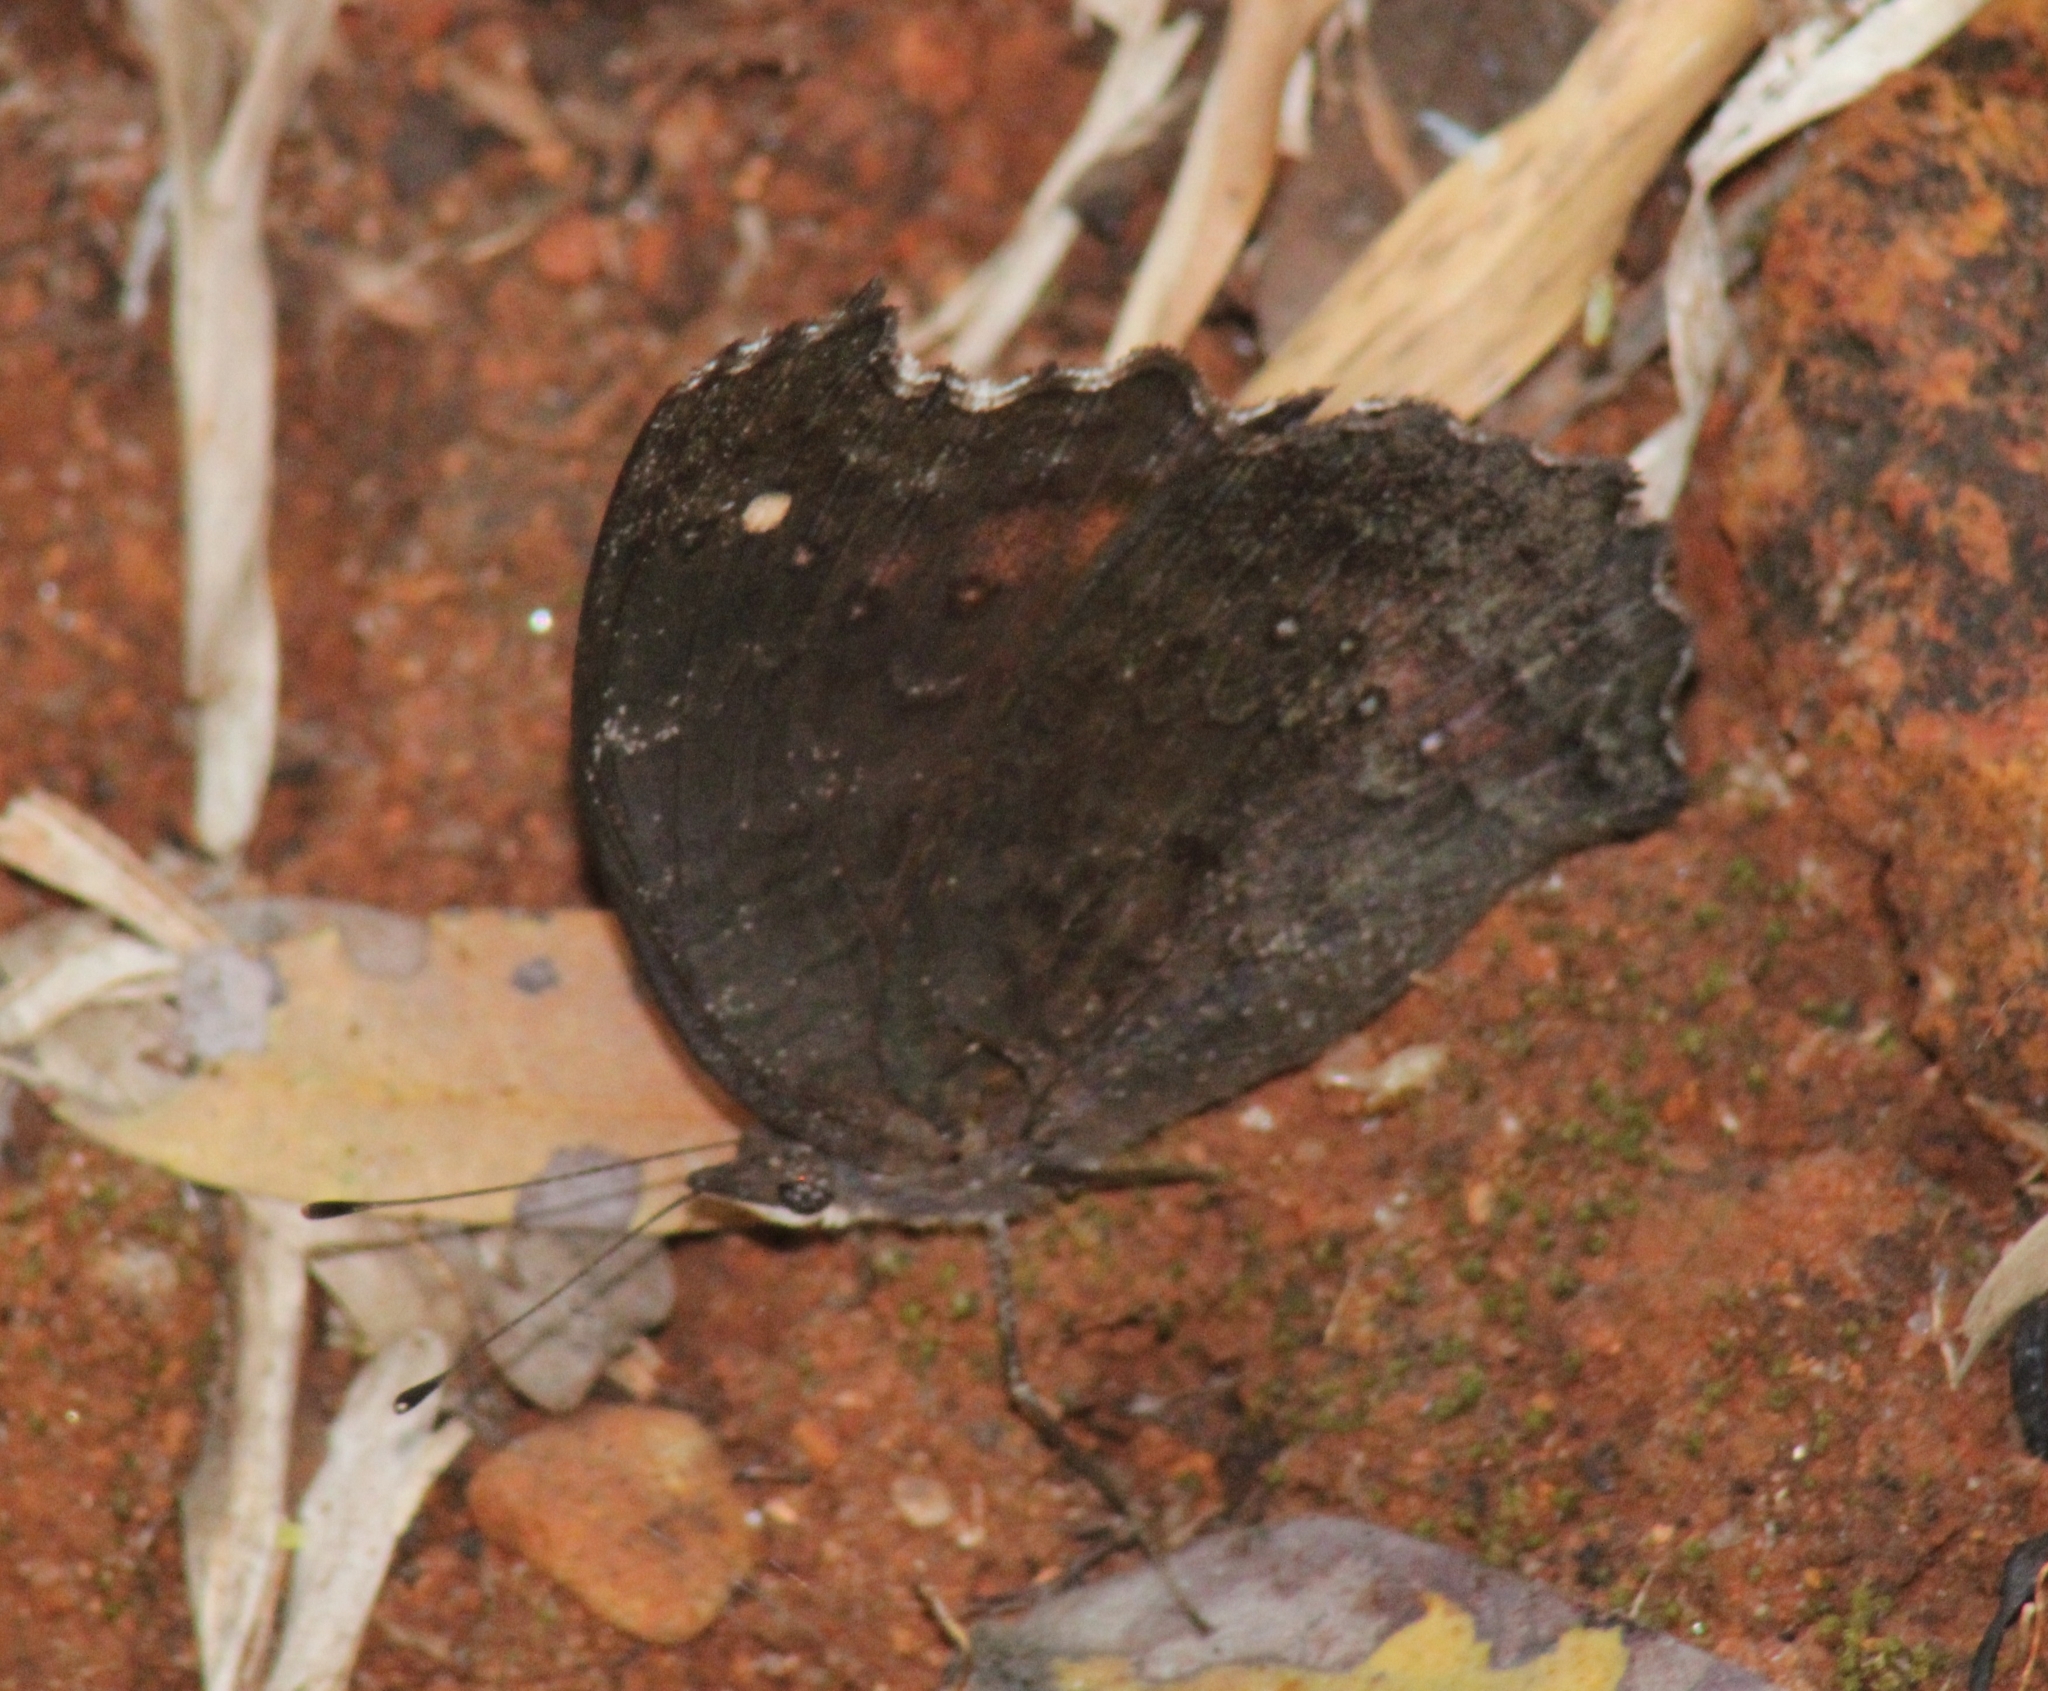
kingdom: Animalia
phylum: Arthropoda
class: Insecta
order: Lepidoptera
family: Nymphalidae
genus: Precis
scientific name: Precis octavia
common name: Gaudy commodore
